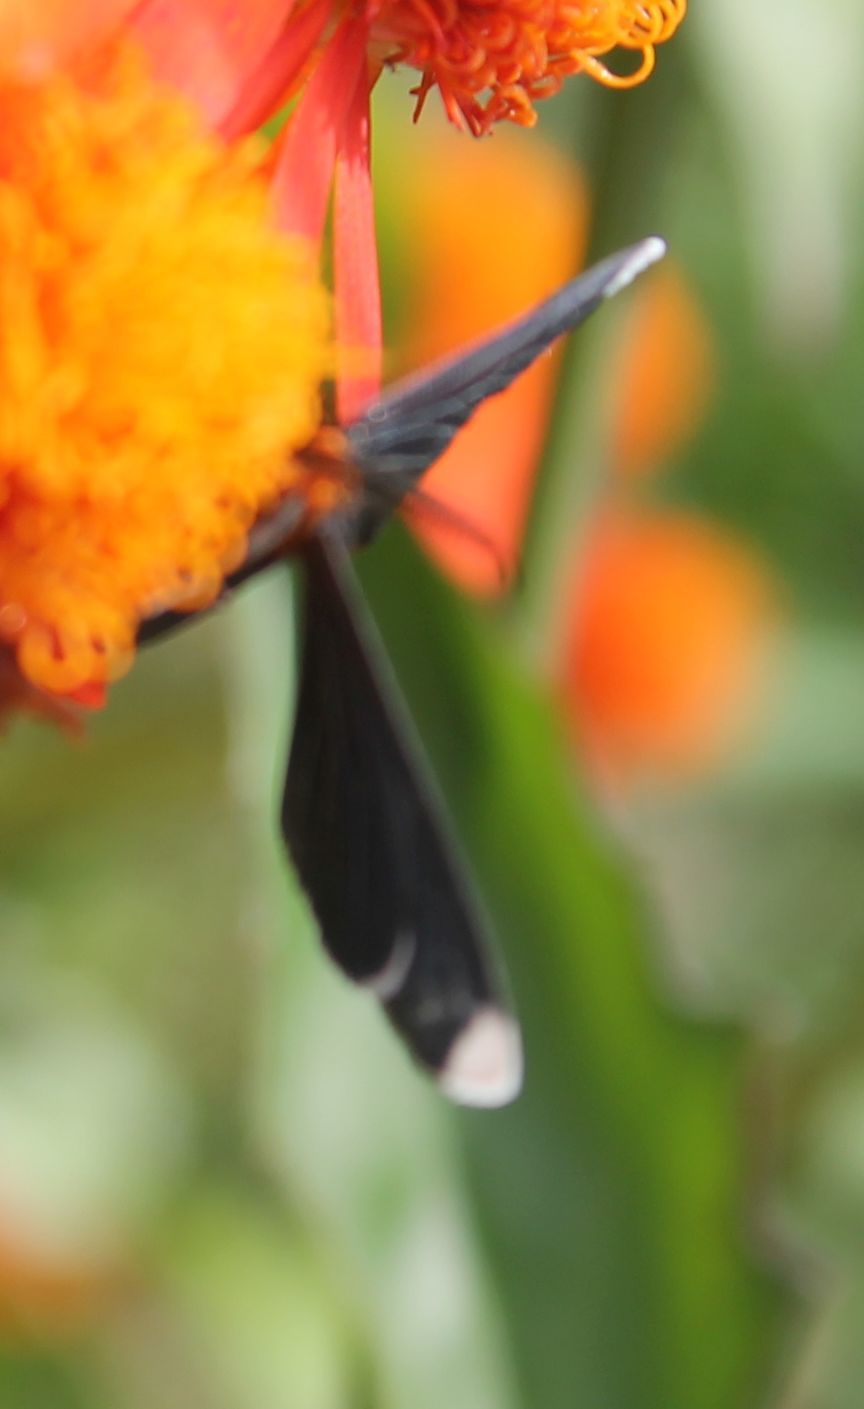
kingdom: Animalia
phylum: Arthropoda
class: Insecta
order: Lepidoptera
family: Geometridae
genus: Melanchroia
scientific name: Melanchroia chephise
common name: White-tipped black
